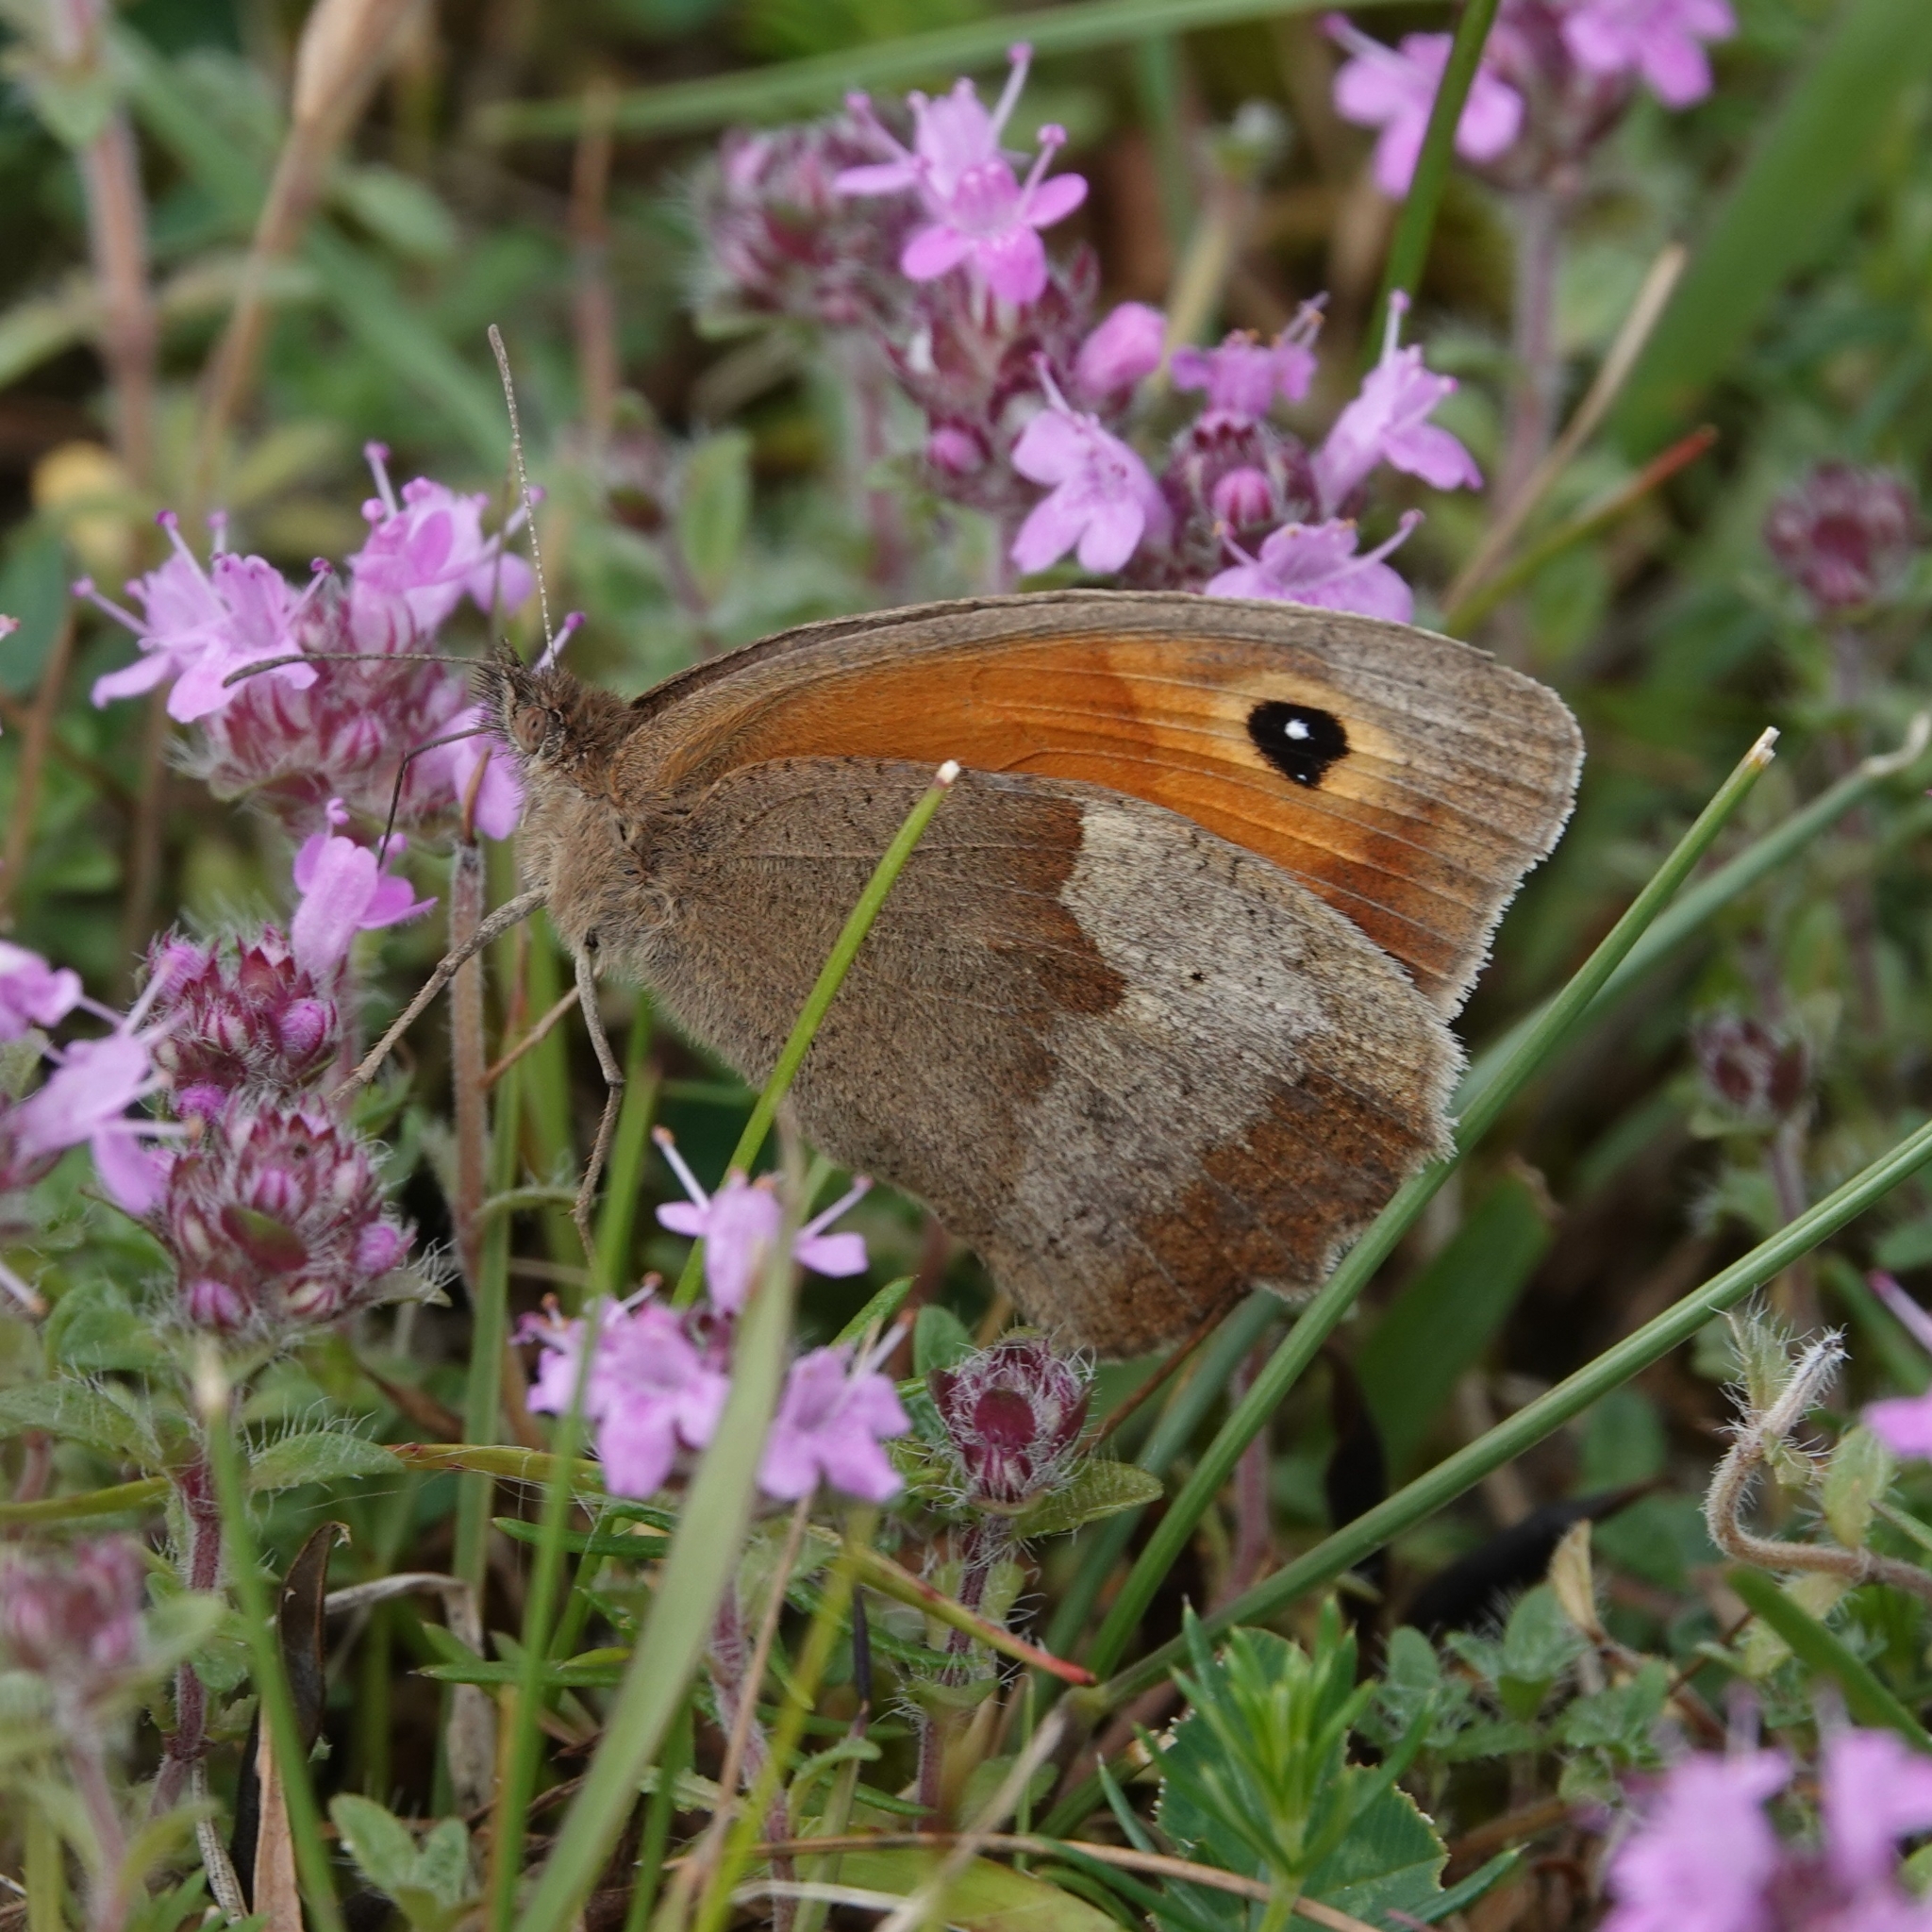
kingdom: Animalia
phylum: Arthropoda
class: Insecta
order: Lepidoptera
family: Nymphalidae
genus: Maniola
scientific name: Maniola jurtina
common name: Meadow brown
